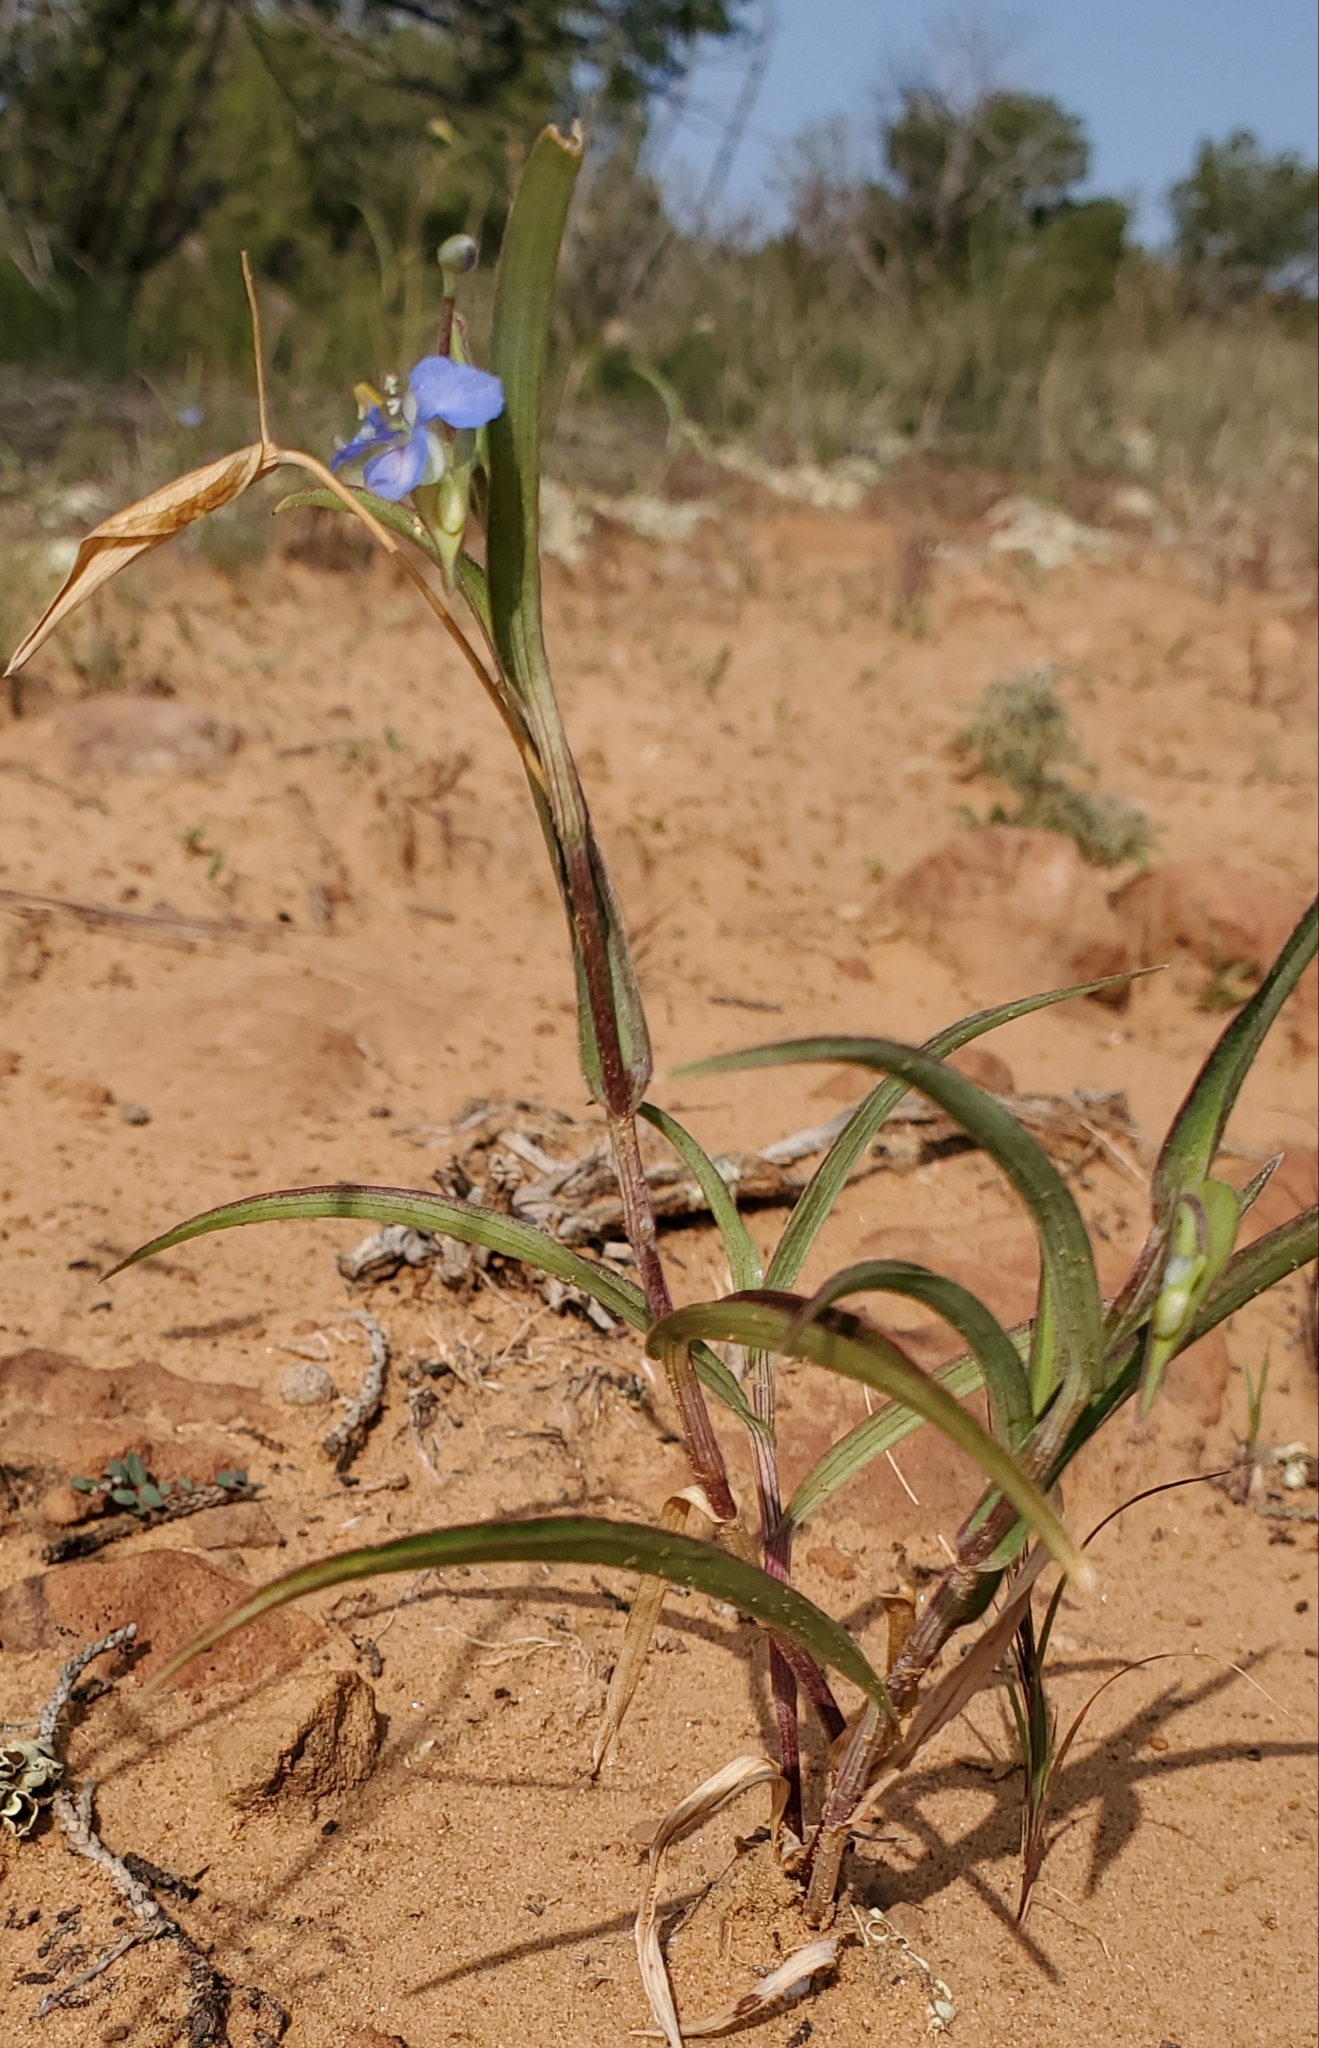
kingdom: Plantae
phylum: Tracheophyta
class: Liliopsida
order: Commelinales
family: Commelinaceae
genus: Commelina
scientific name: Commelina dianthifolia
